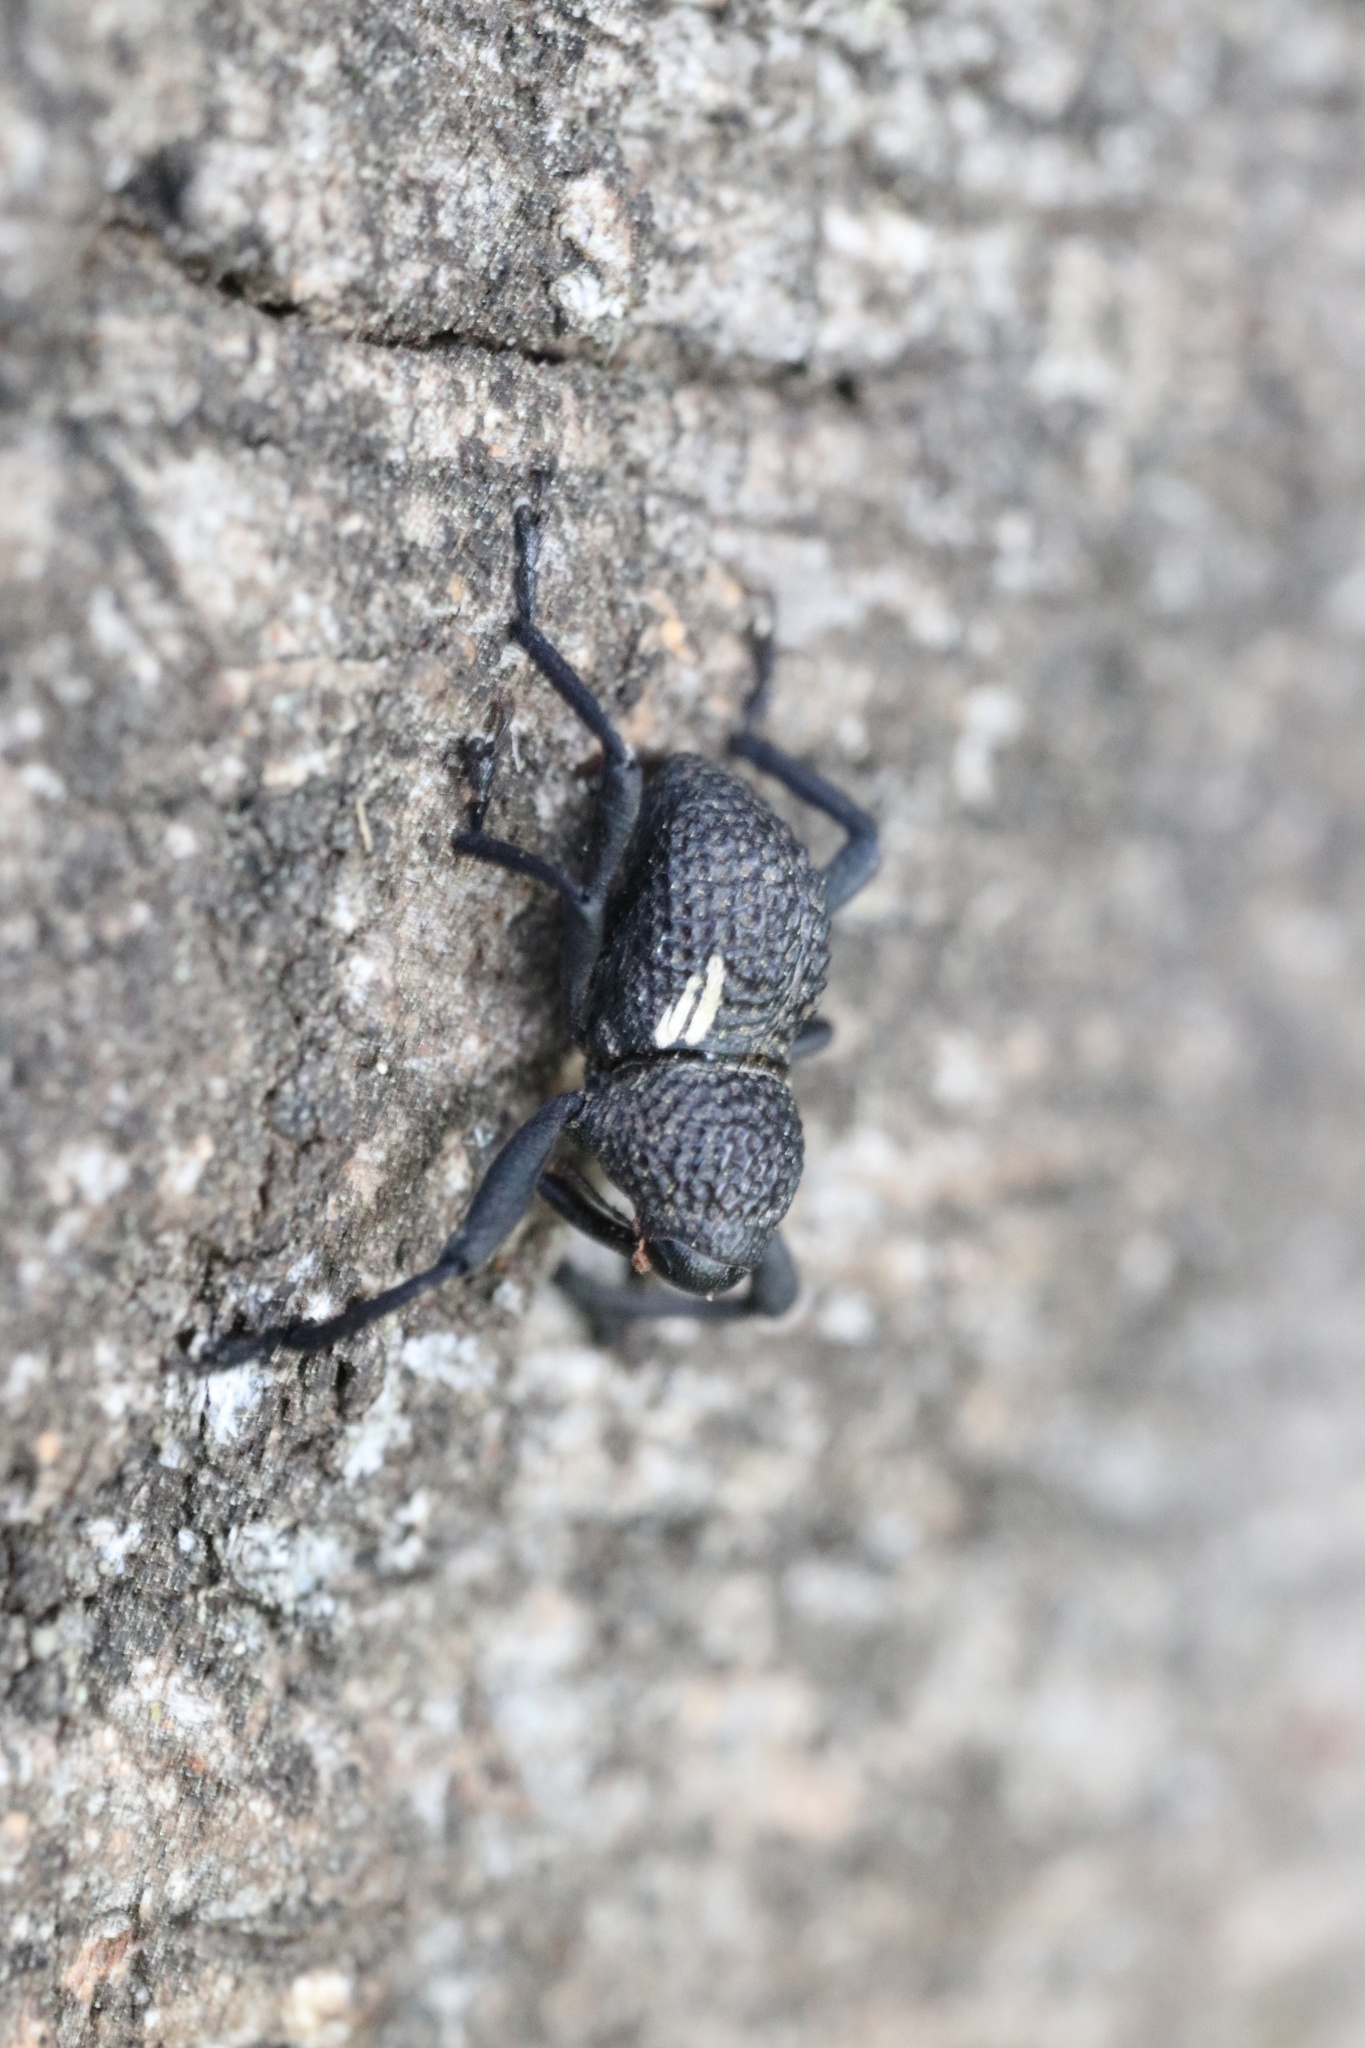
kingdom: Animalia
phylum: Arthropoda
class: Insecta
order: Coleoptera
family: Curculionidae
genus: Rhyephenes
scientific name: Rhyephenes clathratus
